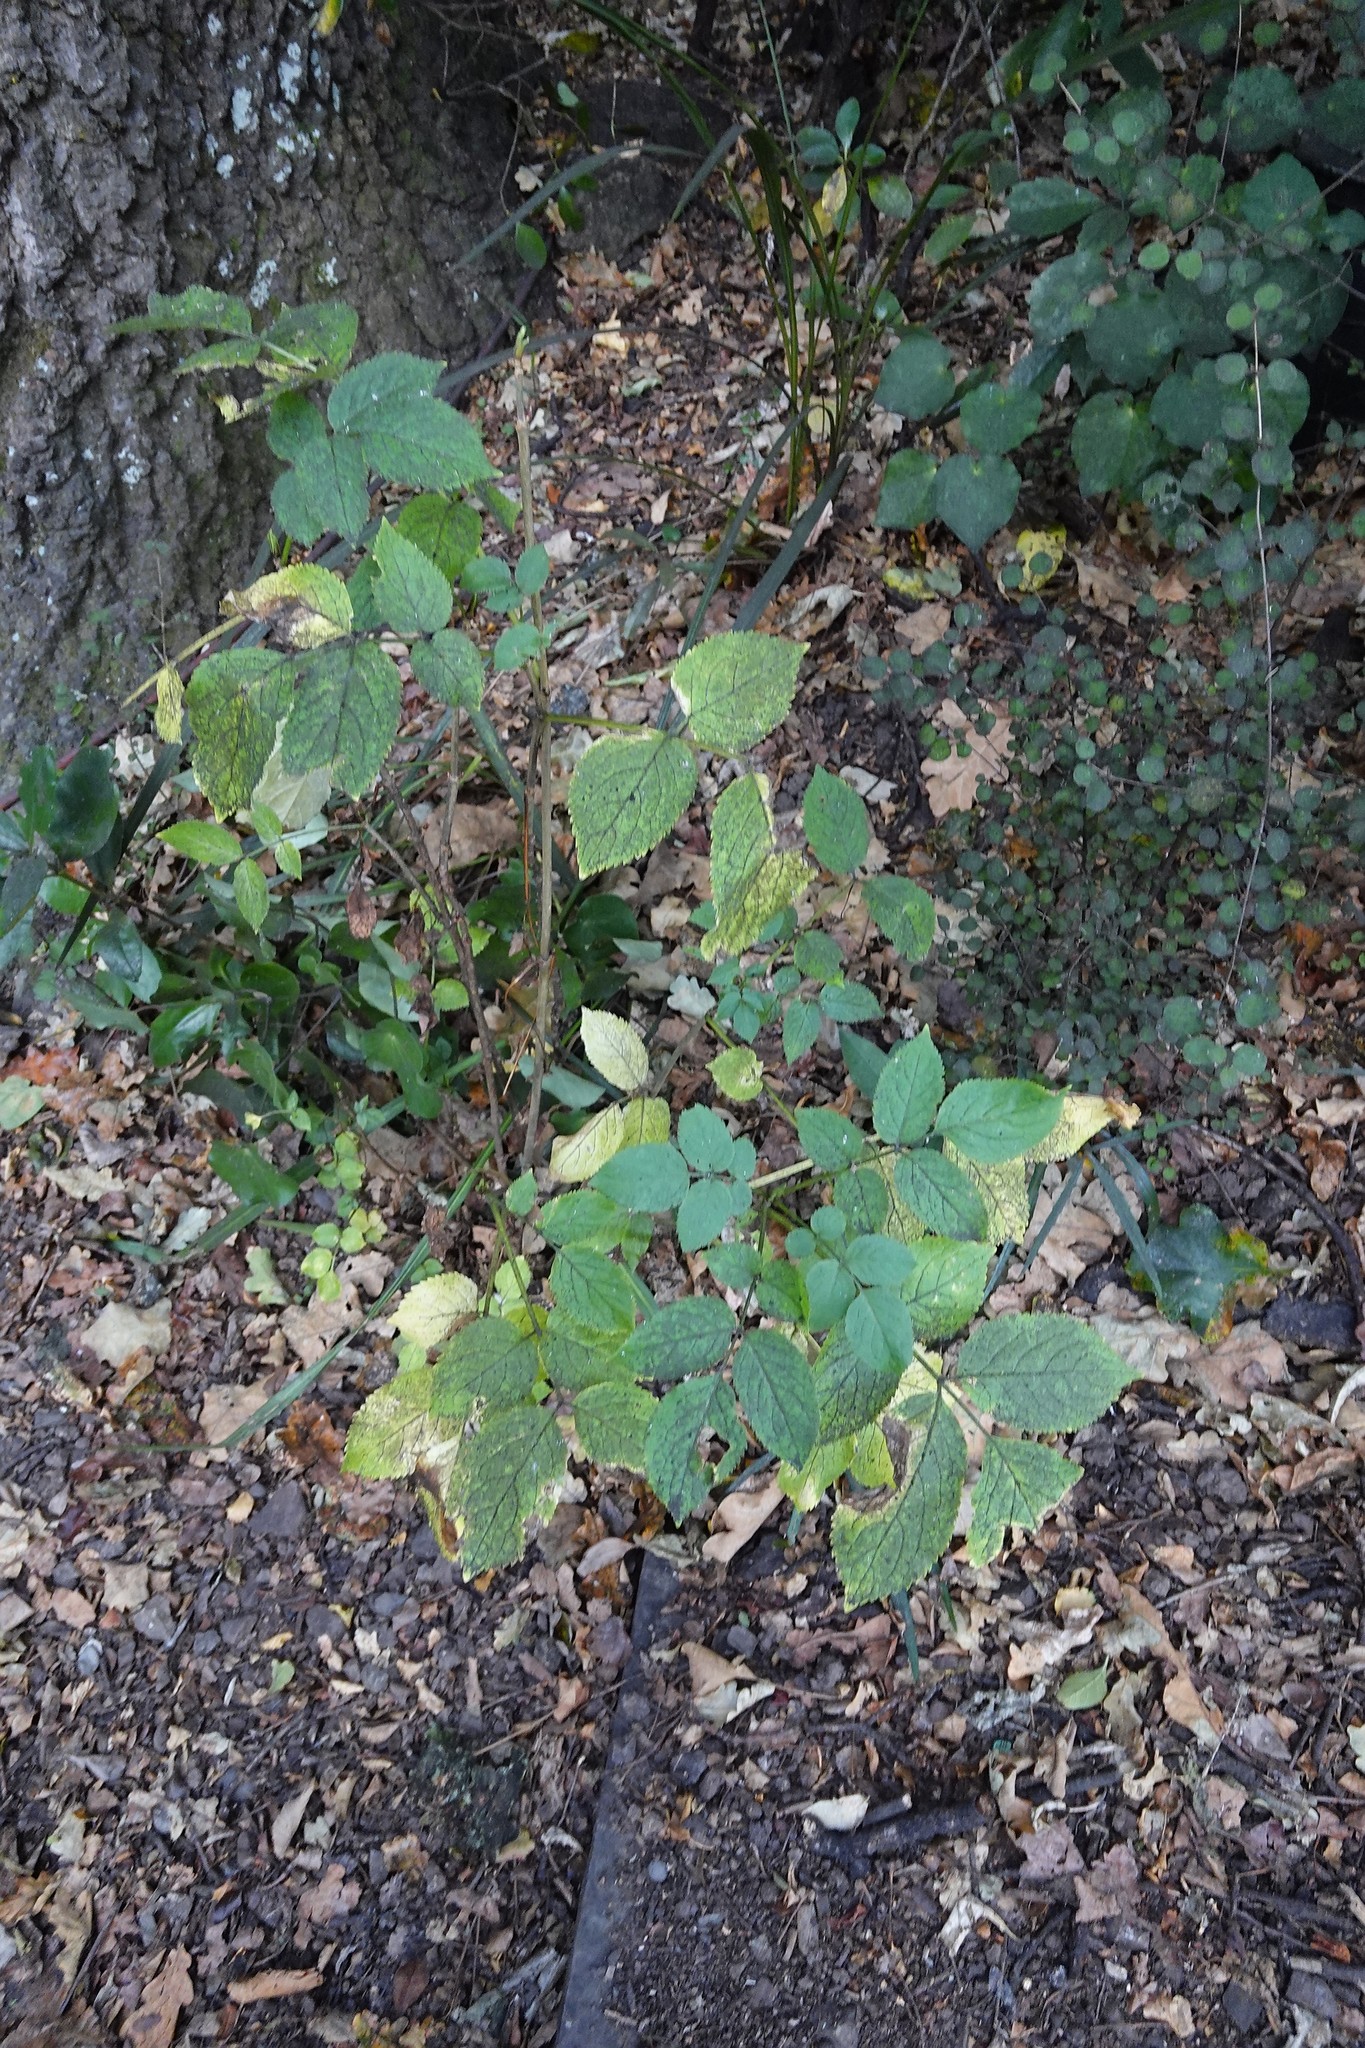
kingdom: Plantae
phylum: Tracheophyta
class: Magnoliopsida
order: Dipsacales
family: Viburnaceae
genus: Sambucus
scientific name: Sambucus nigra
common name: Elder
